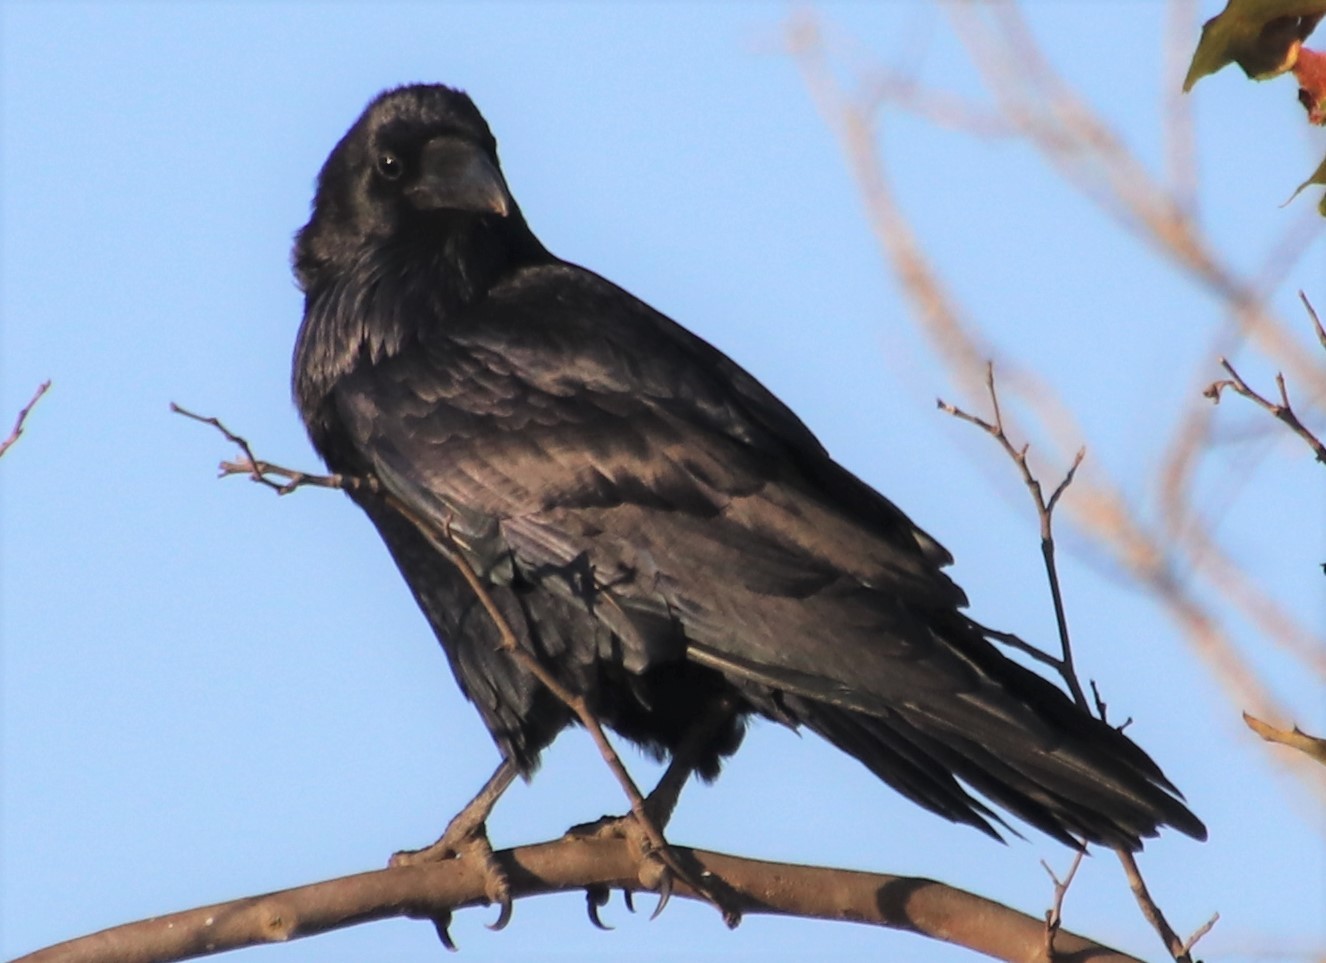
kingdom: Animalia
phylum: Chordata
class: Aves
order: Passeriformes
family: Corvidae
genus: Corvus
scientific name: Corvus corax
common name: Common raven
